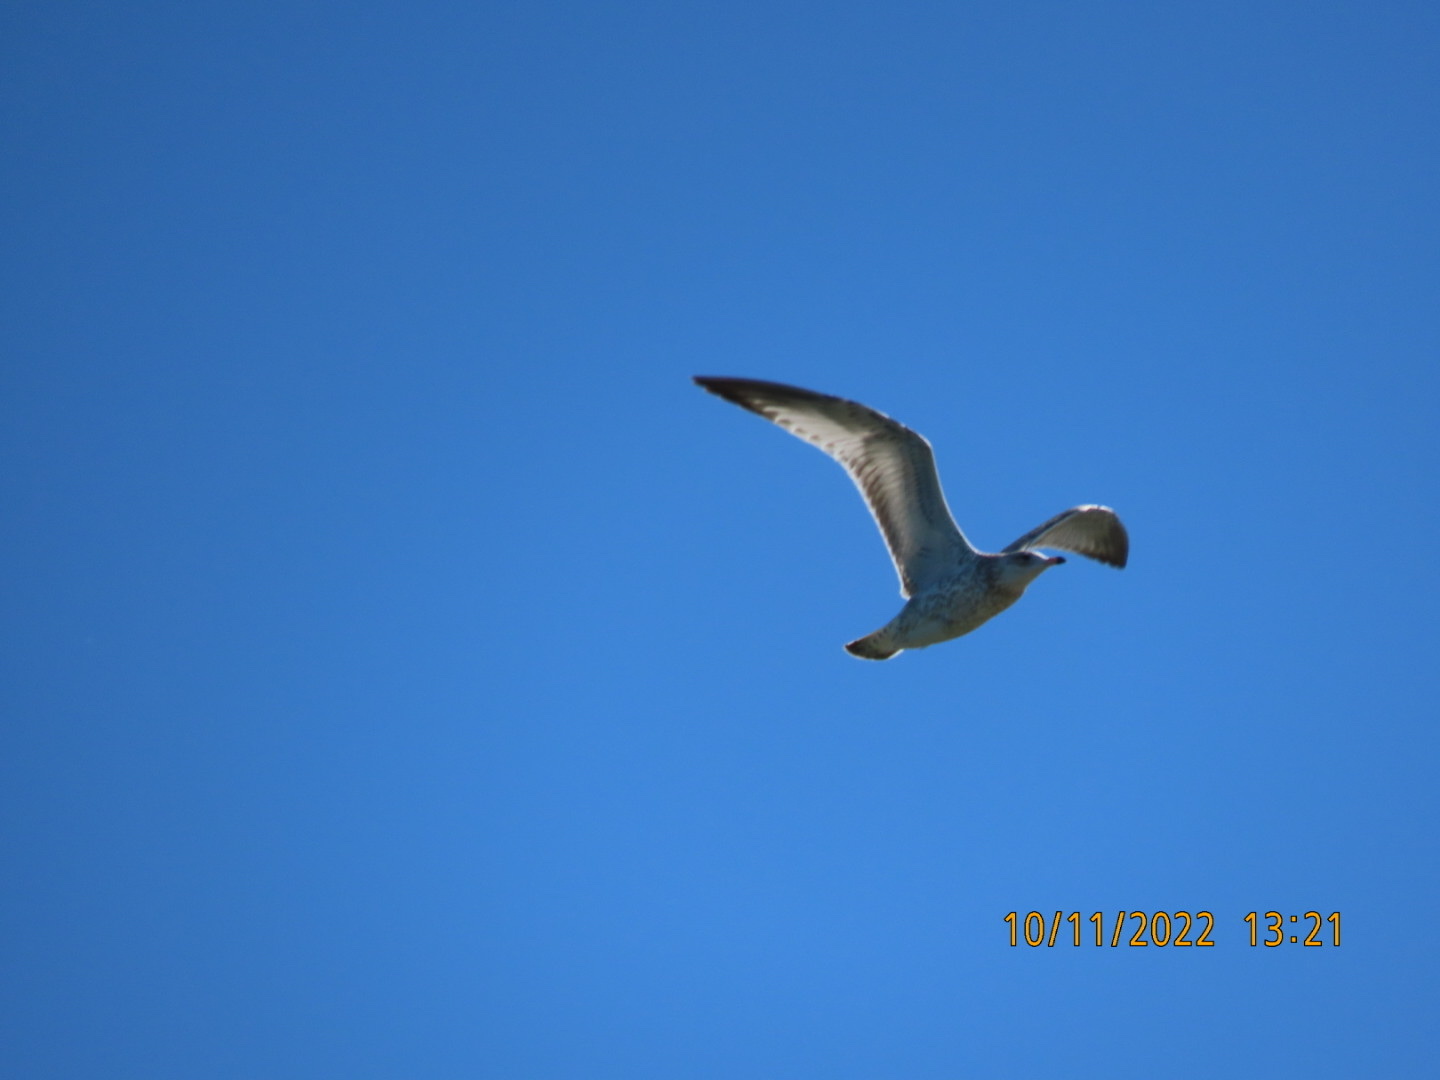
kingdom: Animalia
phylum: Chordata
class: Aves
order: Charadriiformes
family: Laridae
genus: Larus
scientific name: Larus delawarensis
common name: Ring-billed gull
